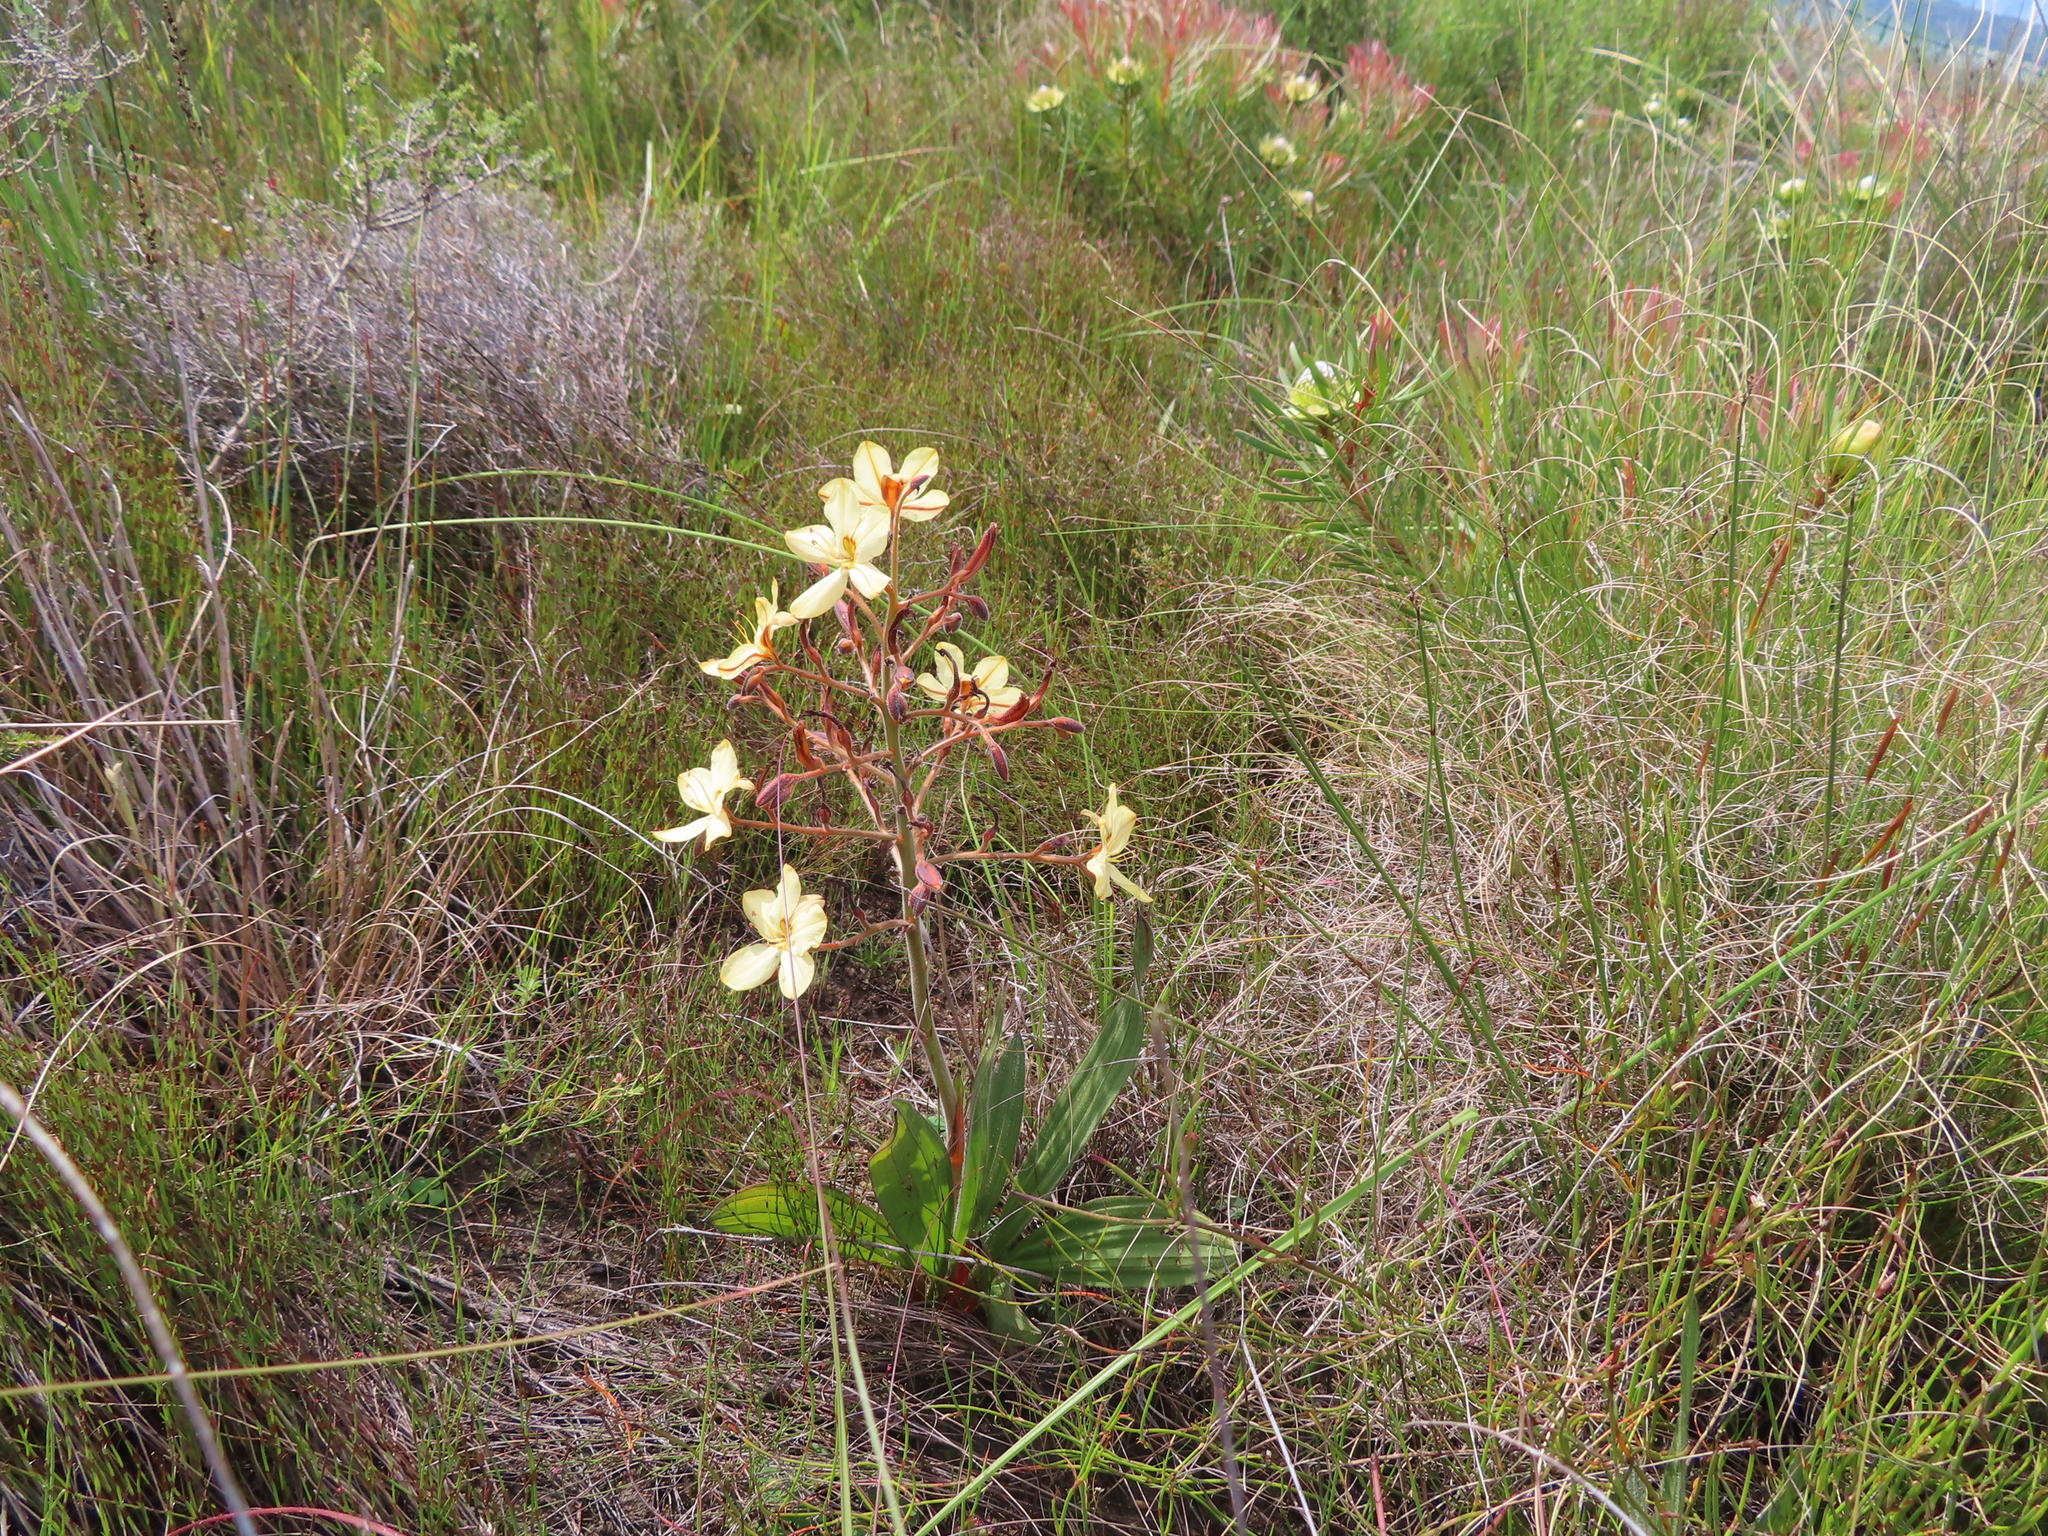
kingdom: Plantae
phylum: Tracheophyta
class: Liliopsida
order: Commelinales
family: Haemodoraceae
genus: Wachendorfia
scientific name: Wachendorfia paniculata
